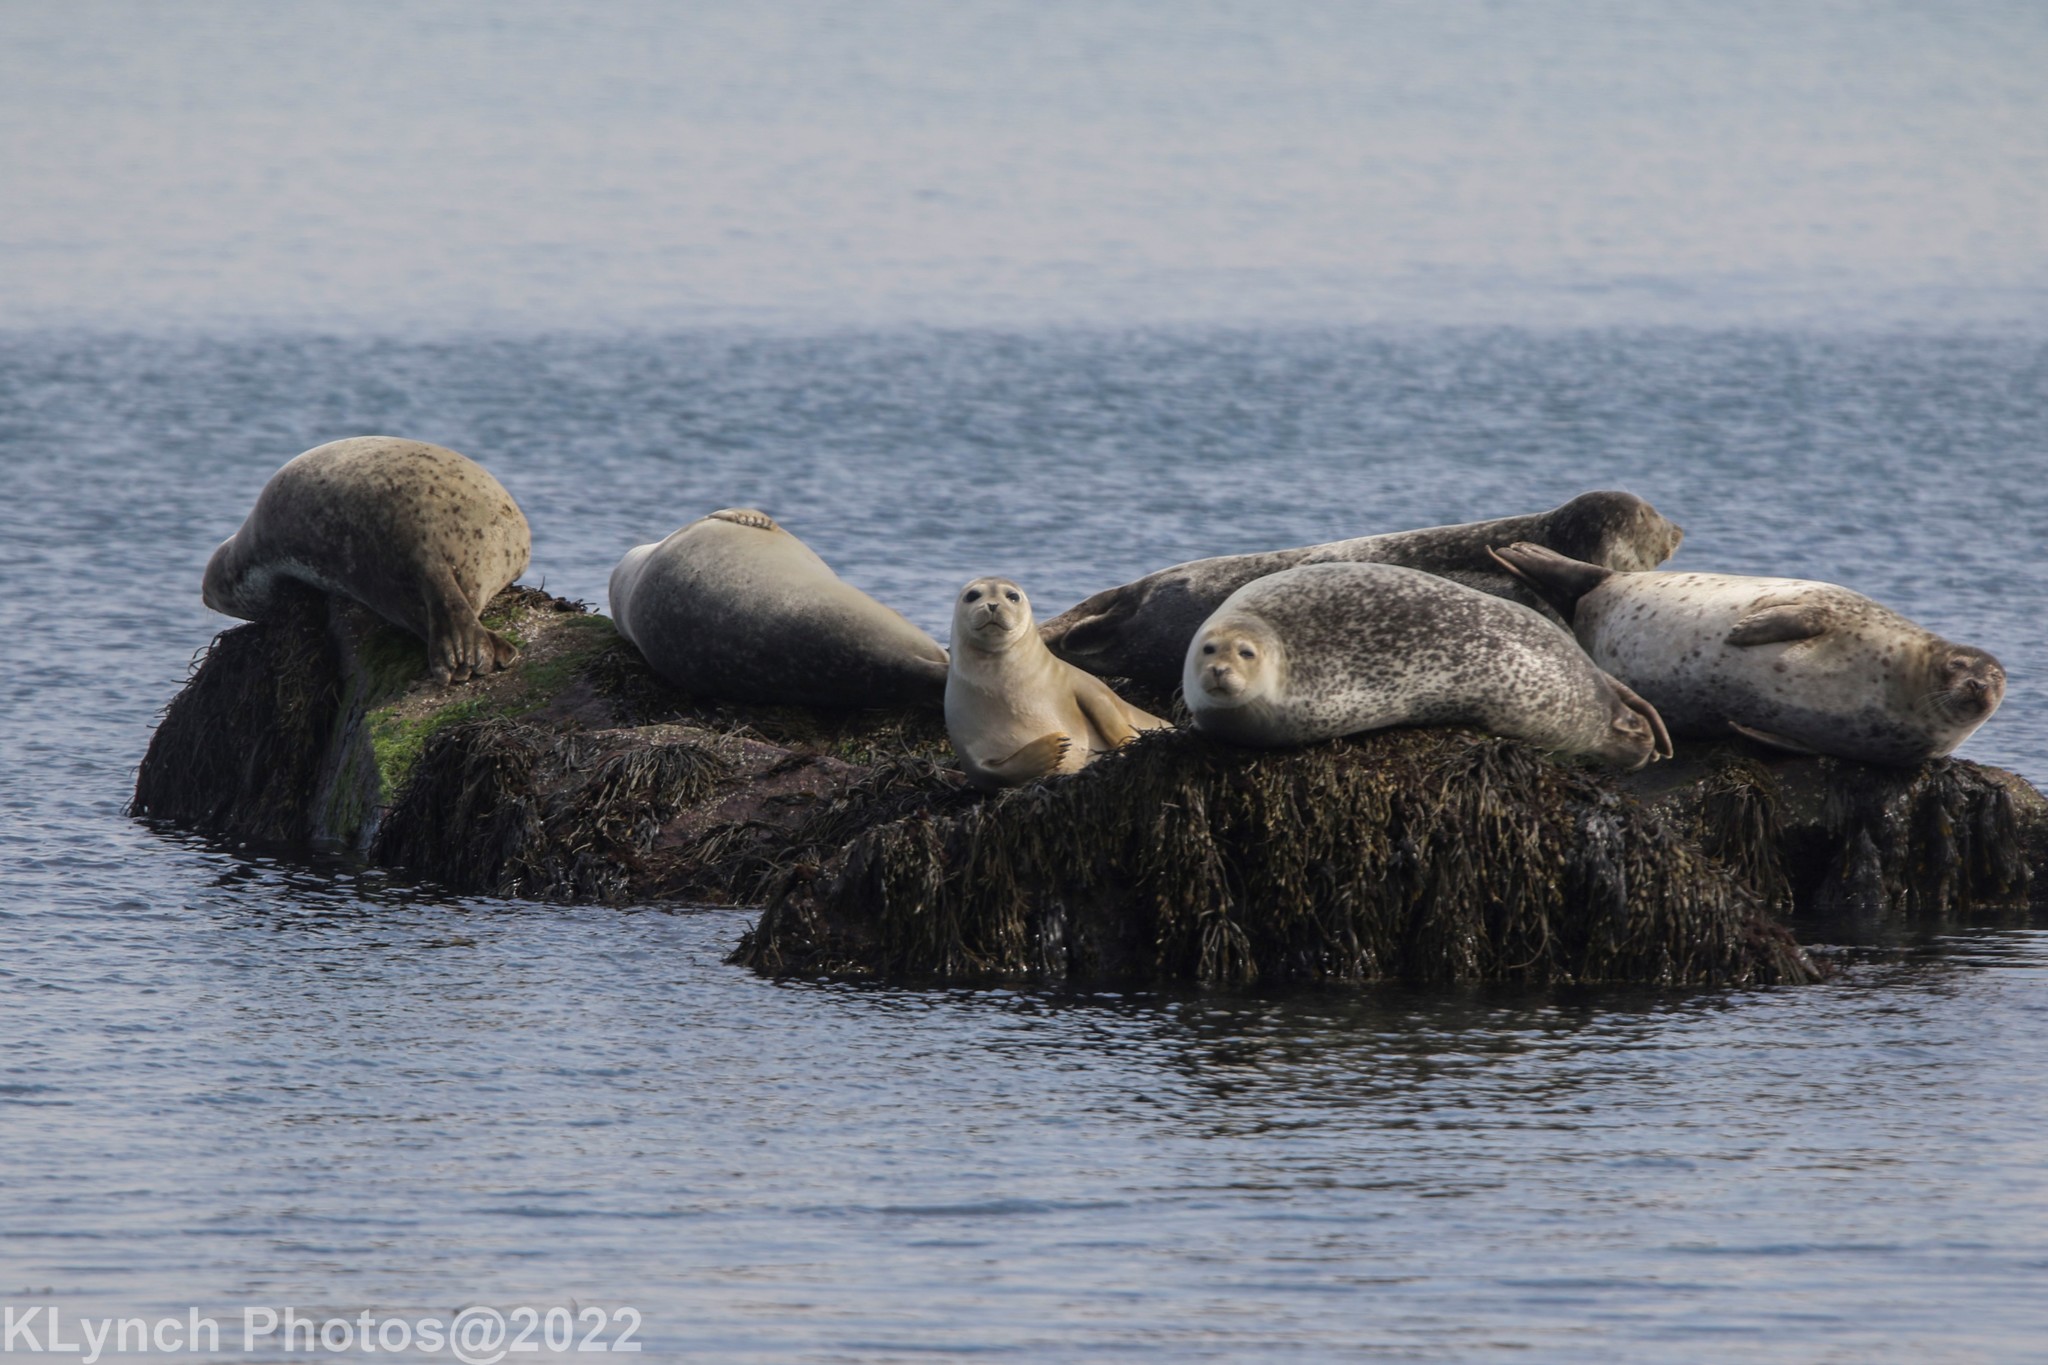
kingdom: Animalia
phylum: Chordata
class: Mammalia
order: Carnivora
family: Phocidae
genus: Phoca
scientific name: Phoca vitulina
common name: Harbor seal
